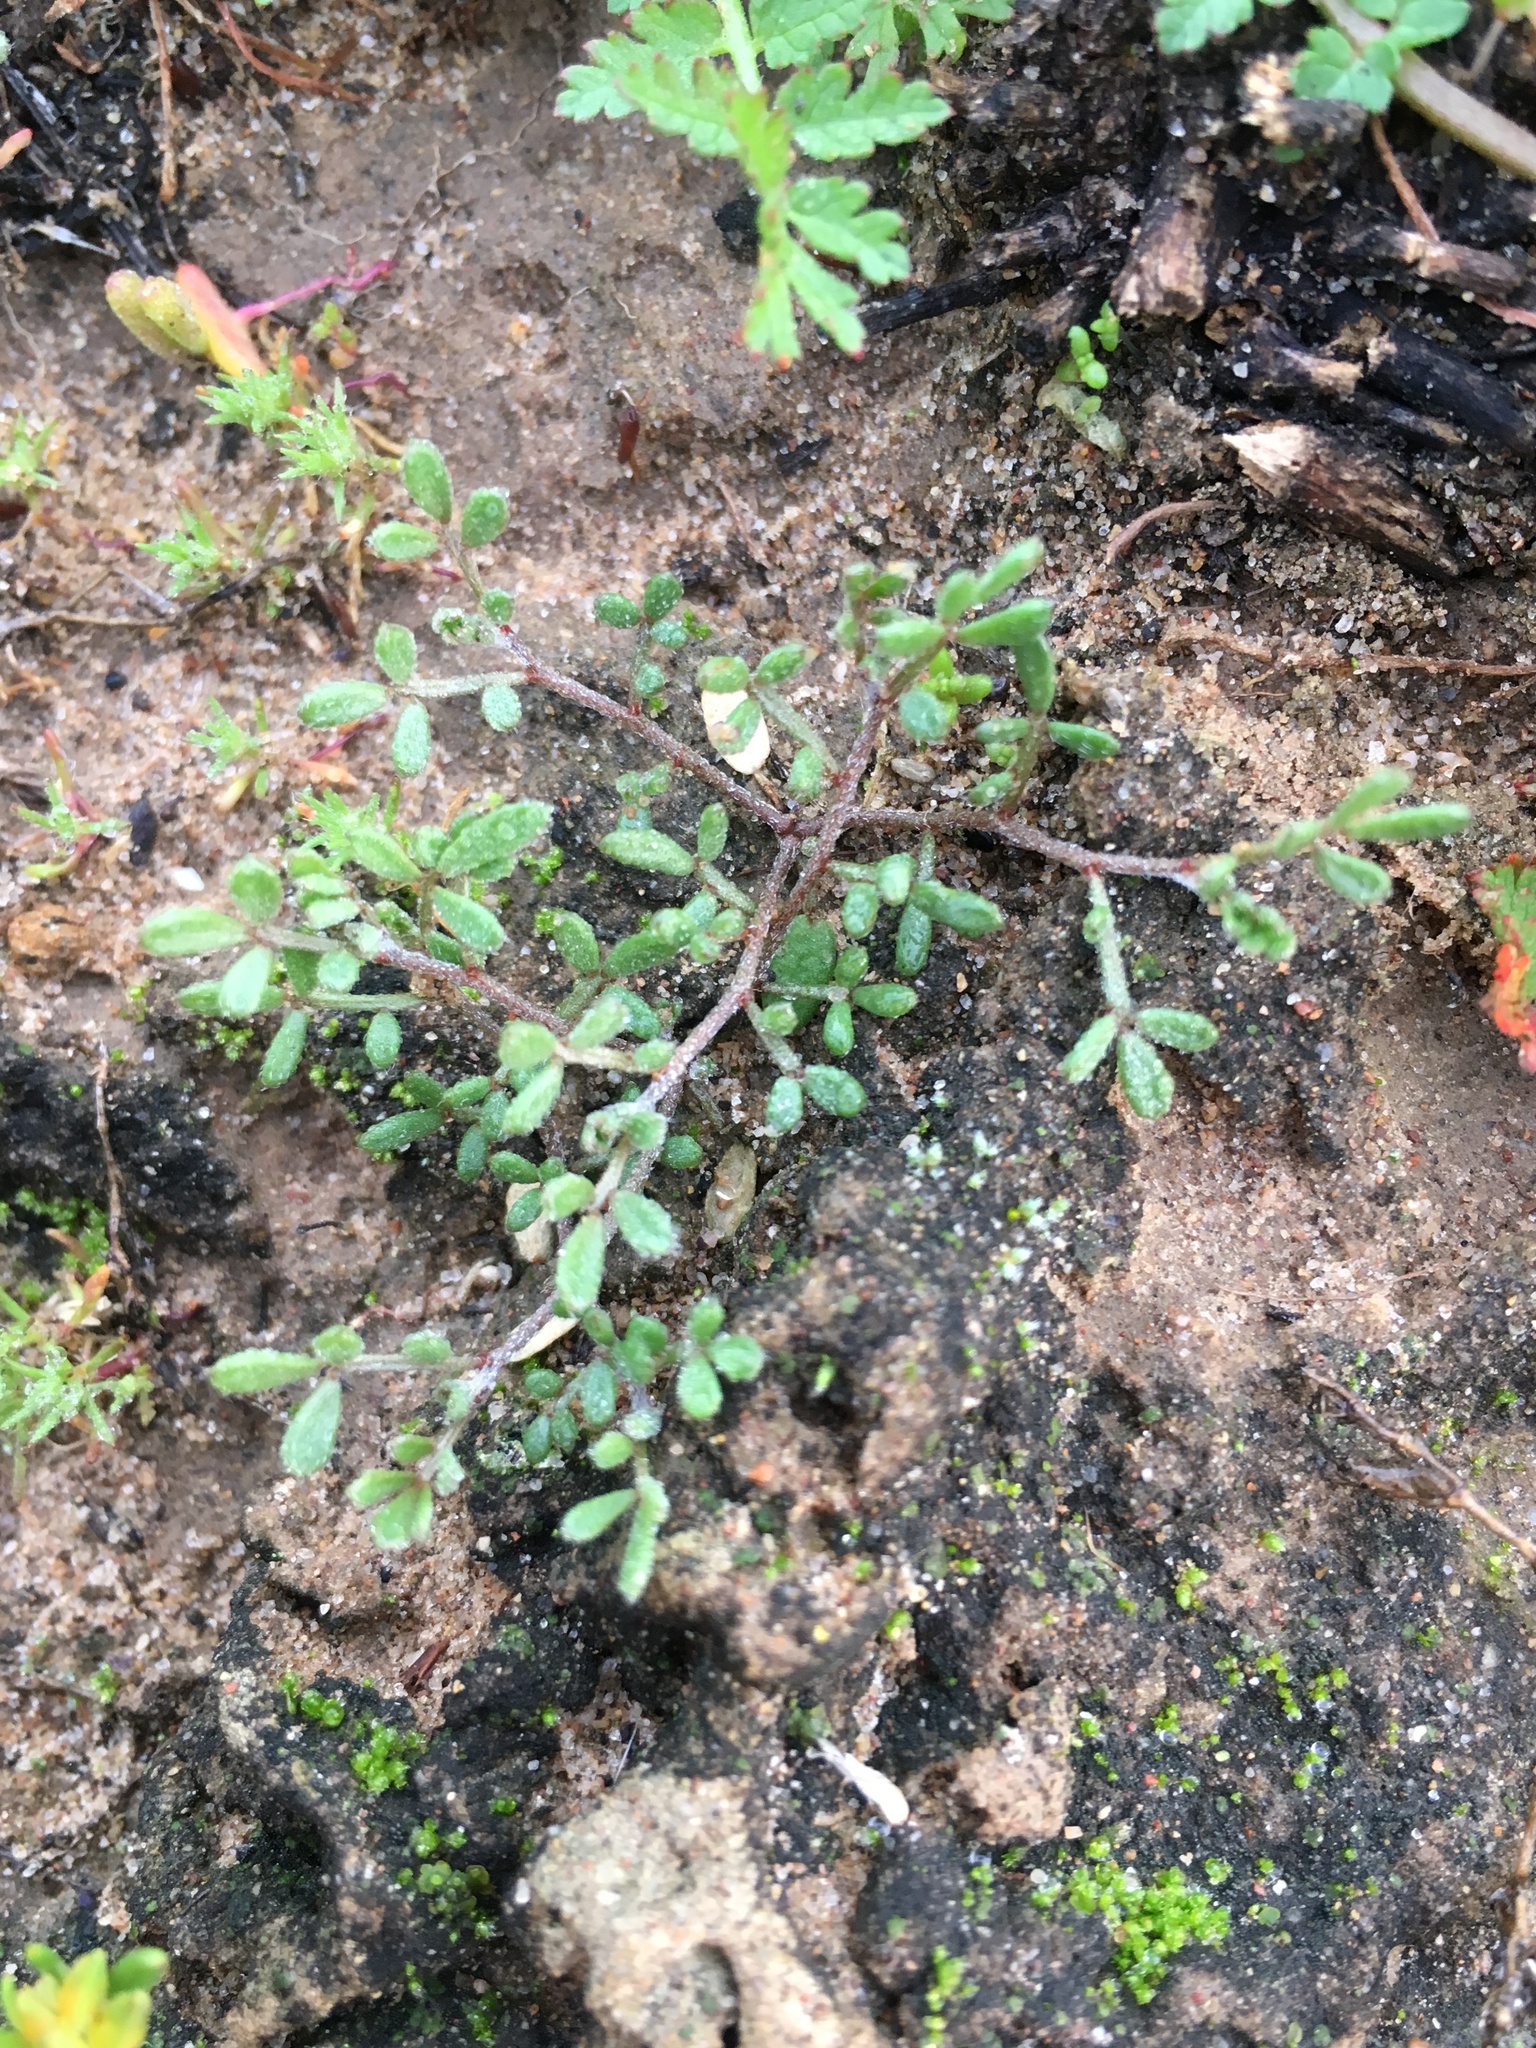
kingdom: Plantae
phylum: Tracheophyta
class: Magnoliopsida
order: Fabales
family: Fabaceae
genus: Acmispon
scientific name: Acmispon strigosus
